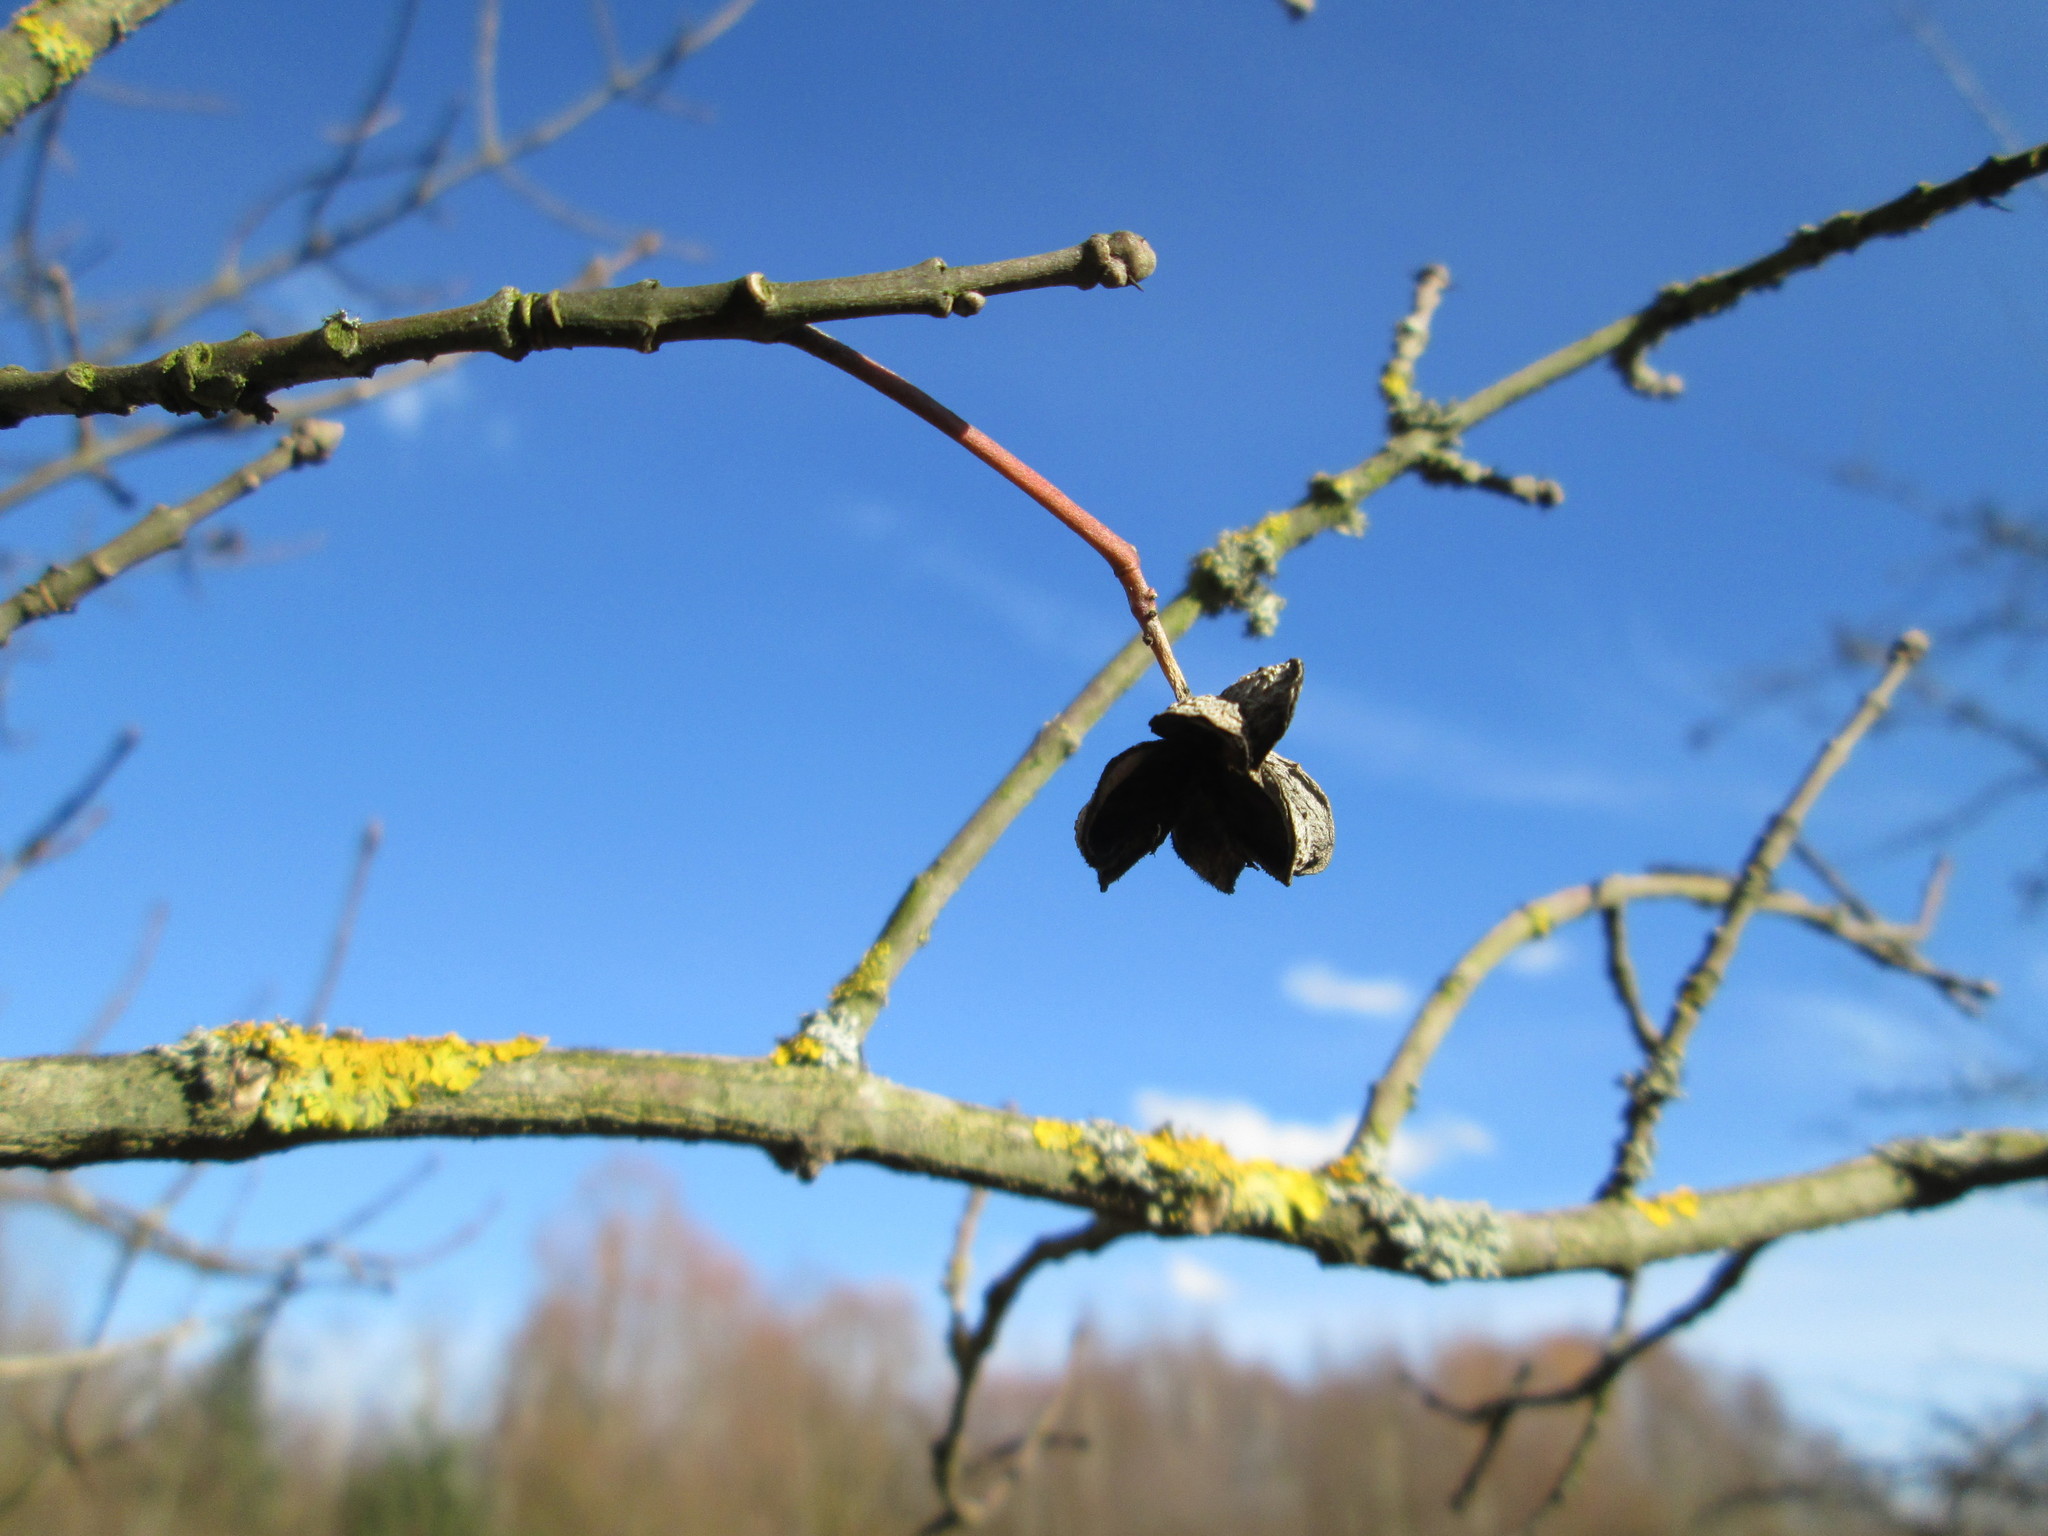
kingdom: Plantae
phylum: Tracheophyta
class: Magnoliopsida
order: Celastrales
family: Celastraceae
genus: Euonymus
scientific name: Euonymus europaeus
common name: Spindle
